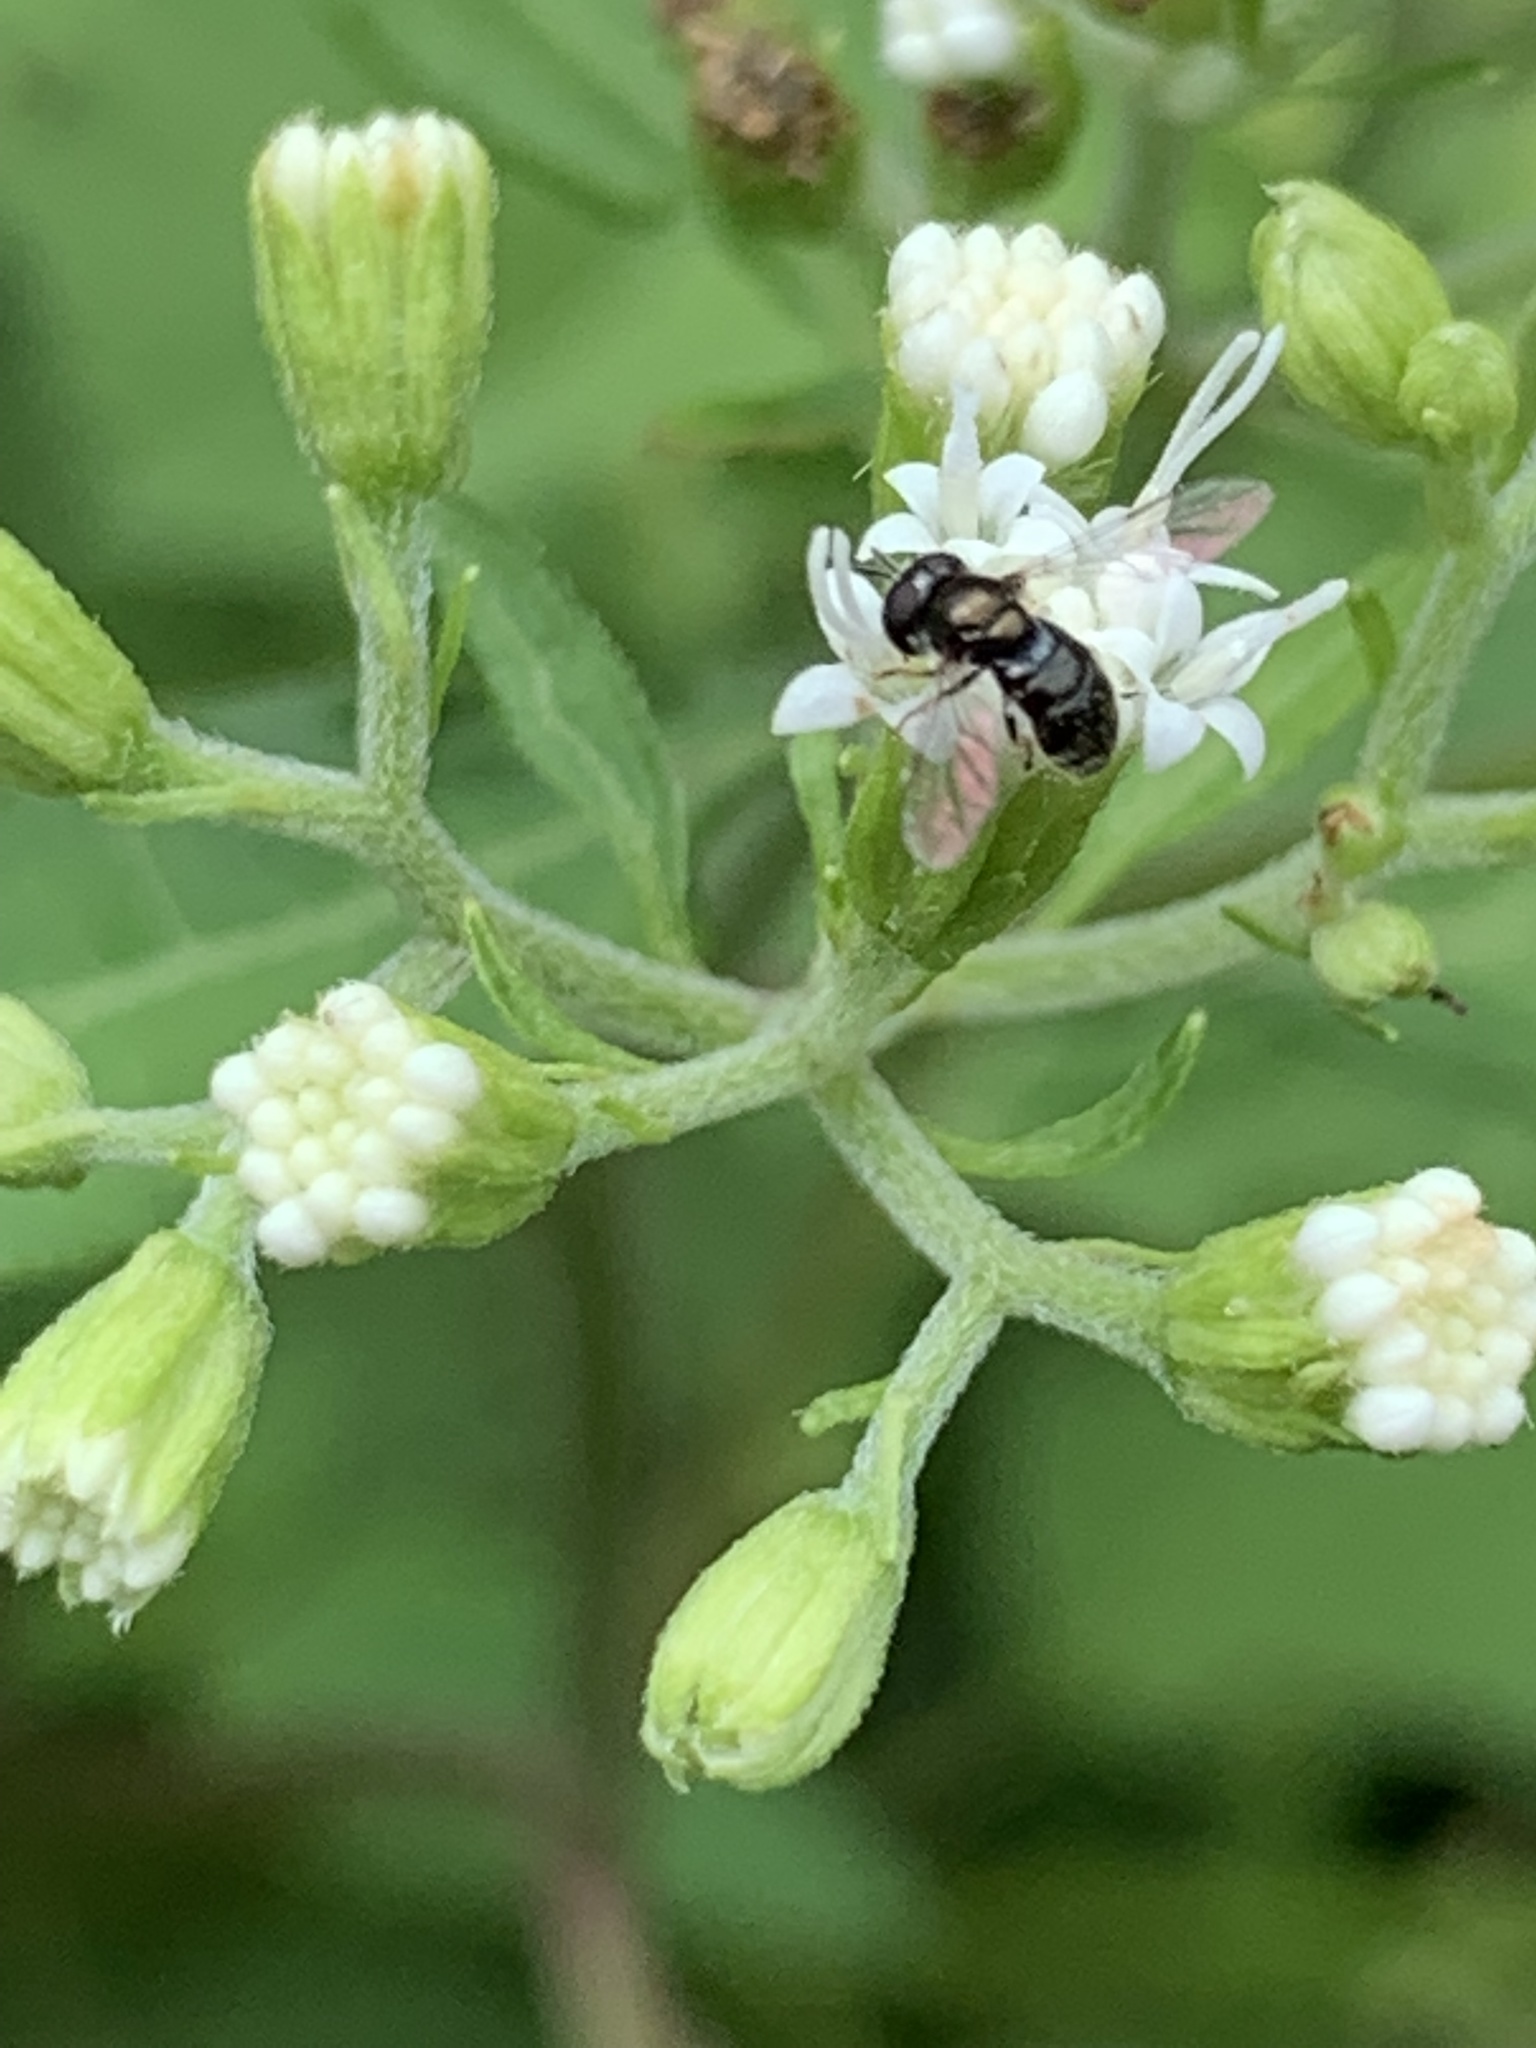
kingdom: Animalia
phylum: Arthropoda
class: Insecta
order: Diptera
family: Syrphidae
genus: Paragus
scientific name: Paragus haemorrhous
